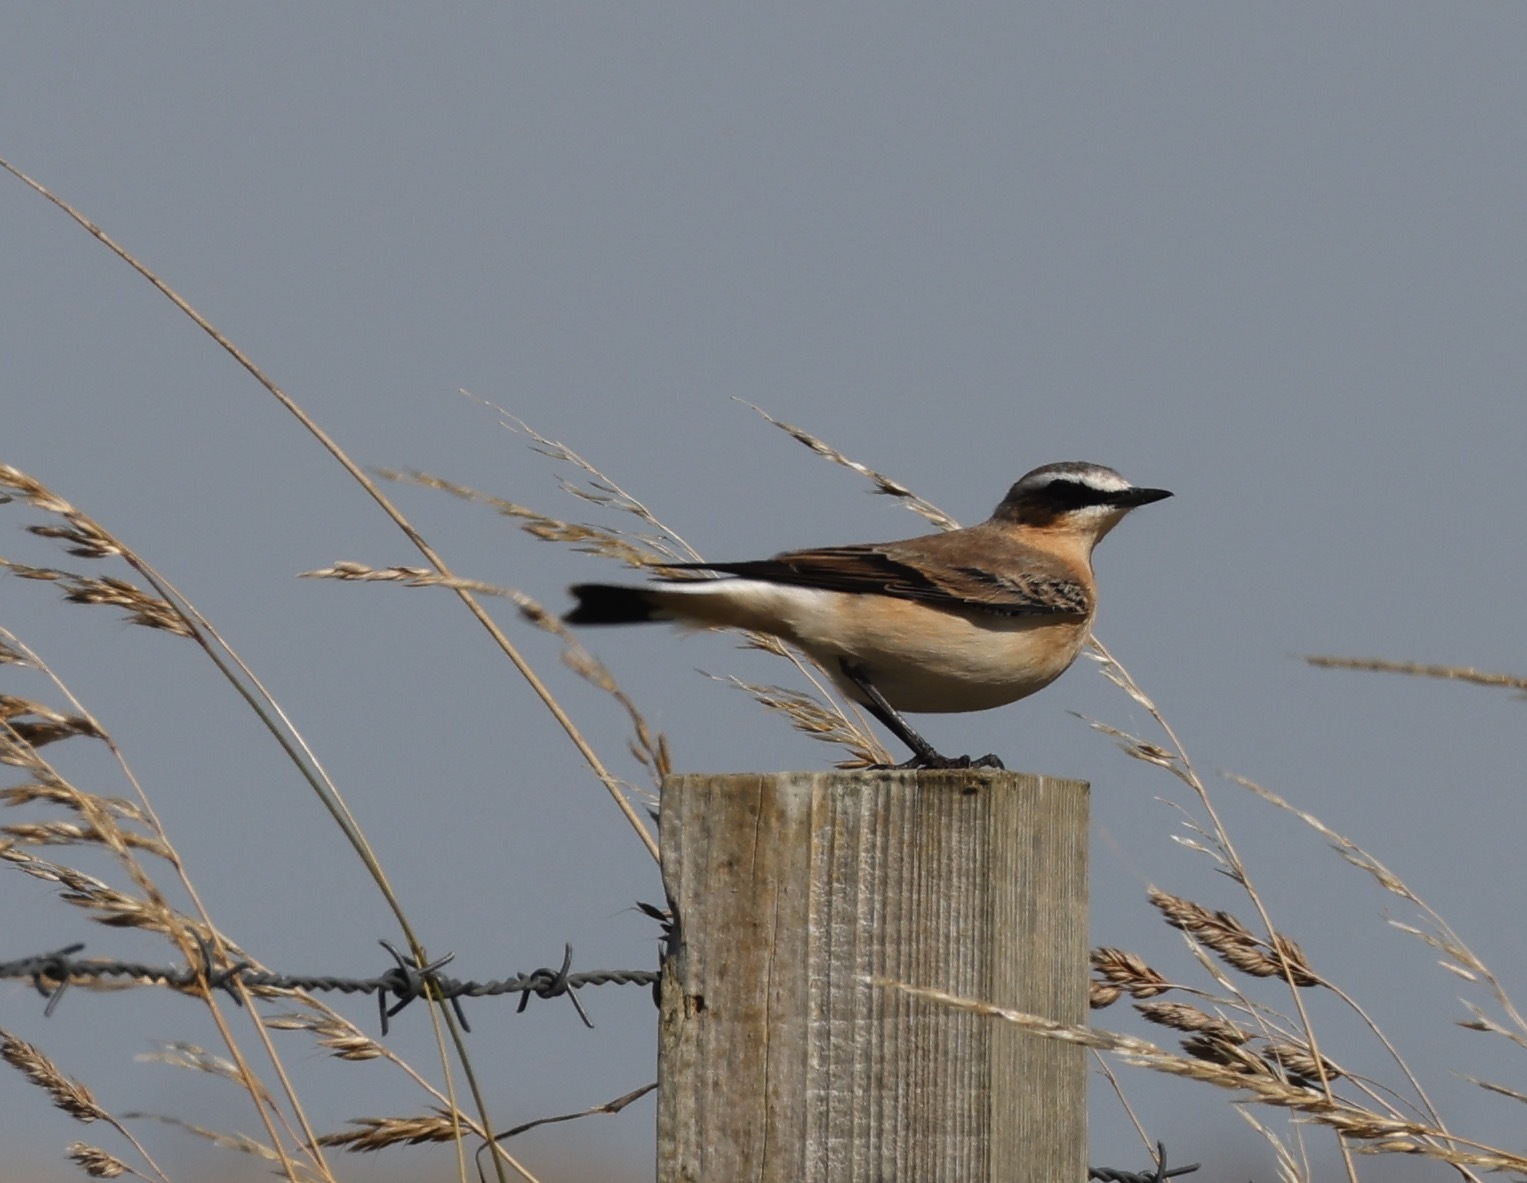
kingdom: Animalia
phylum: Chordata
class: Aves
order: Passeriformes
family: Muscicapidae
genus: Oenanthe
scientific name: Oenanthe oenanthe
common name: Northern wheatear
